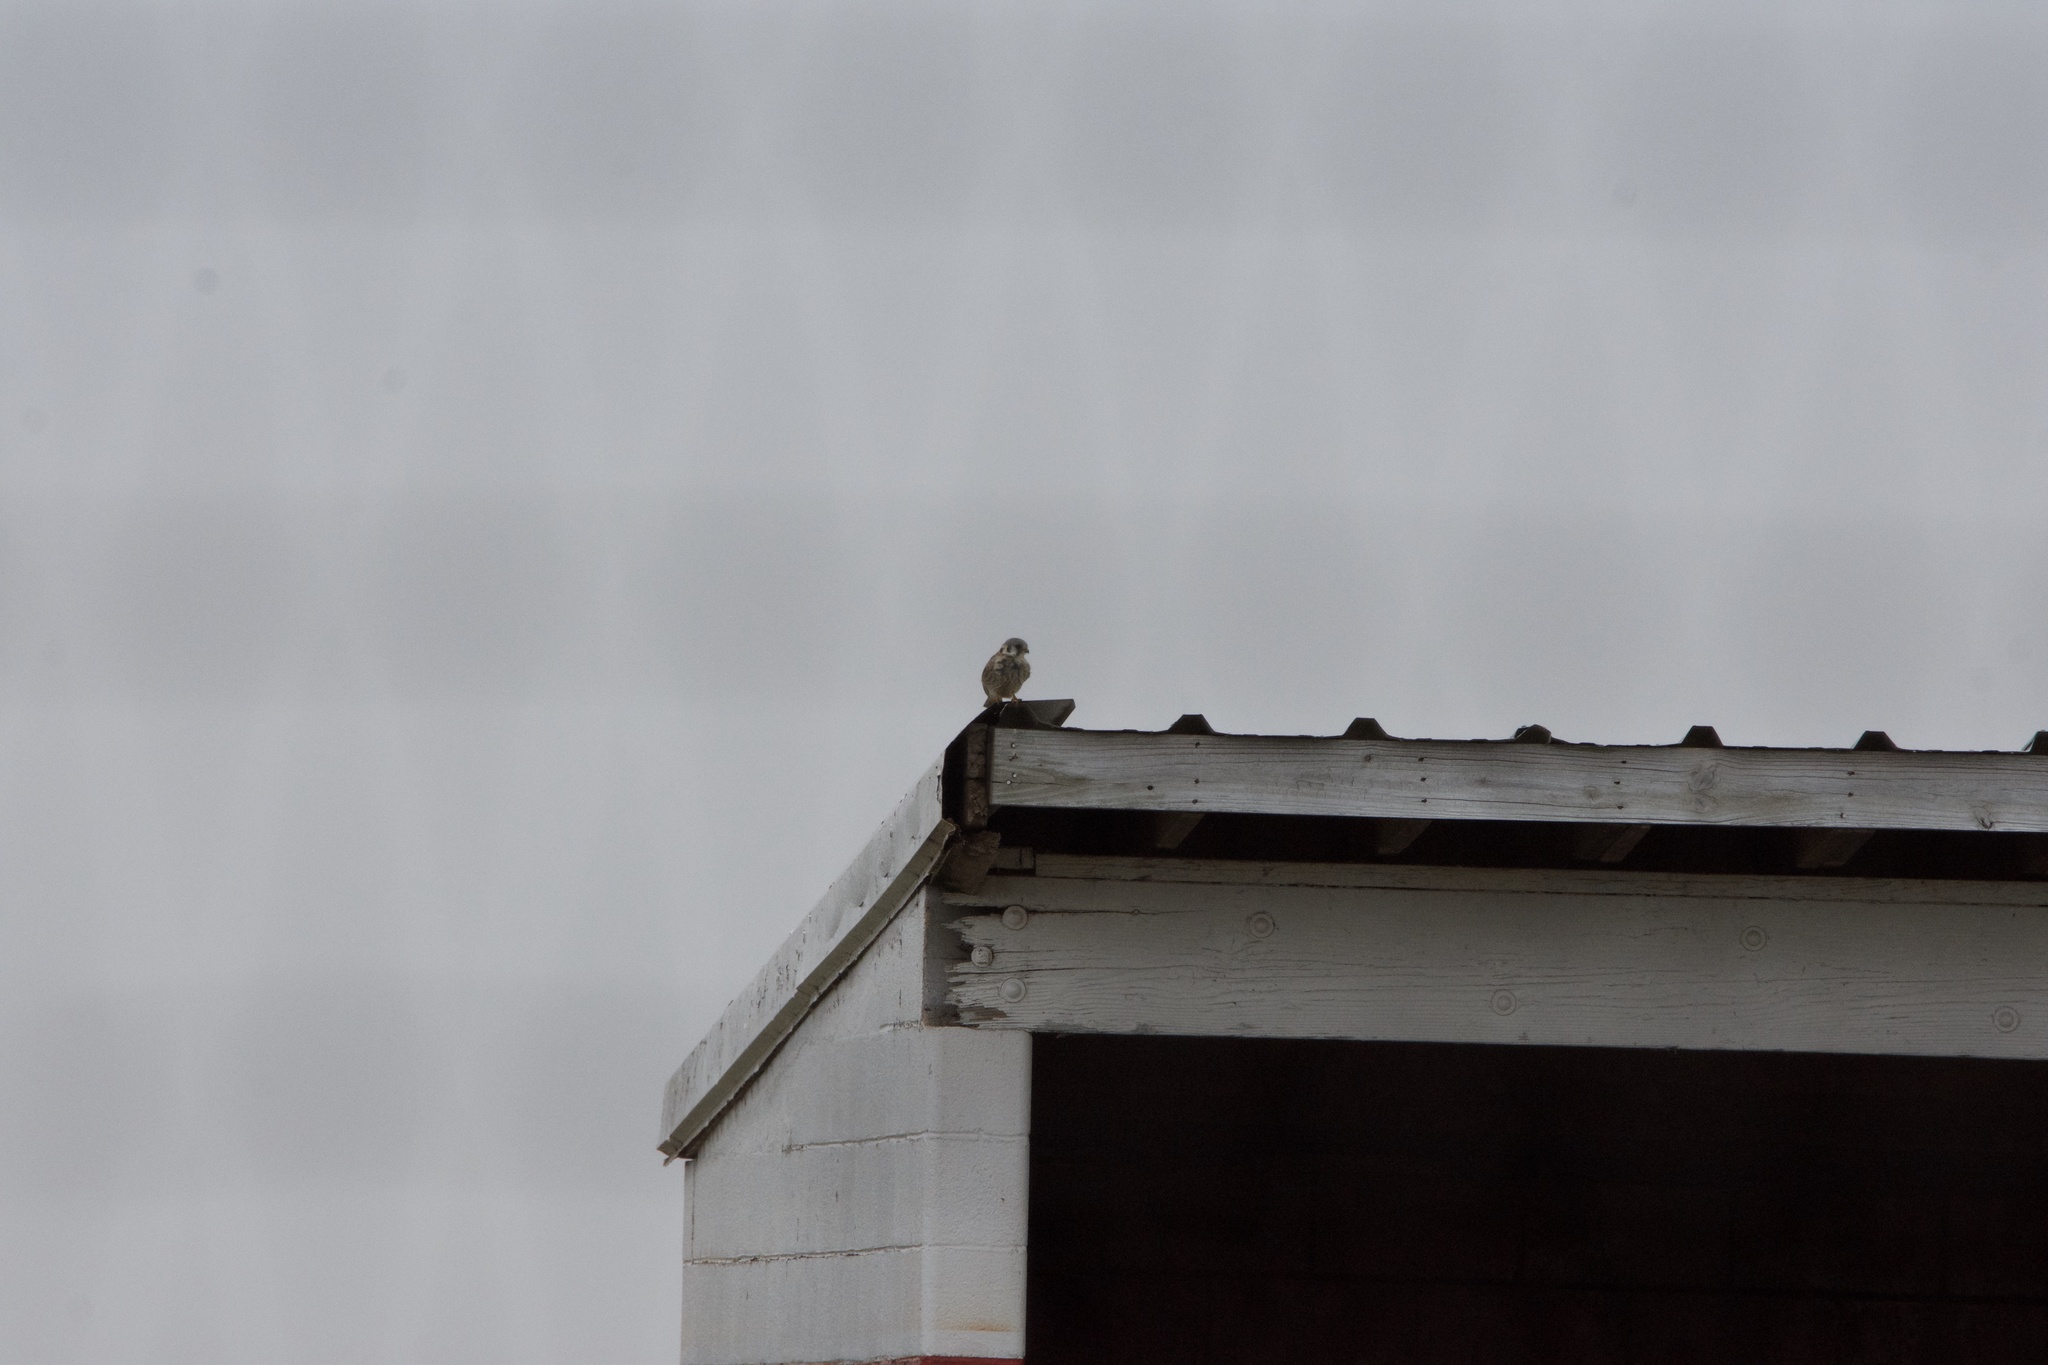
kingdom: Animalia
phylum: Chordata
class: Aves
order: Falconiformes
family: Falconidae
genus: Falco
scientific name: Falco sparverius
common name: American kestrel
